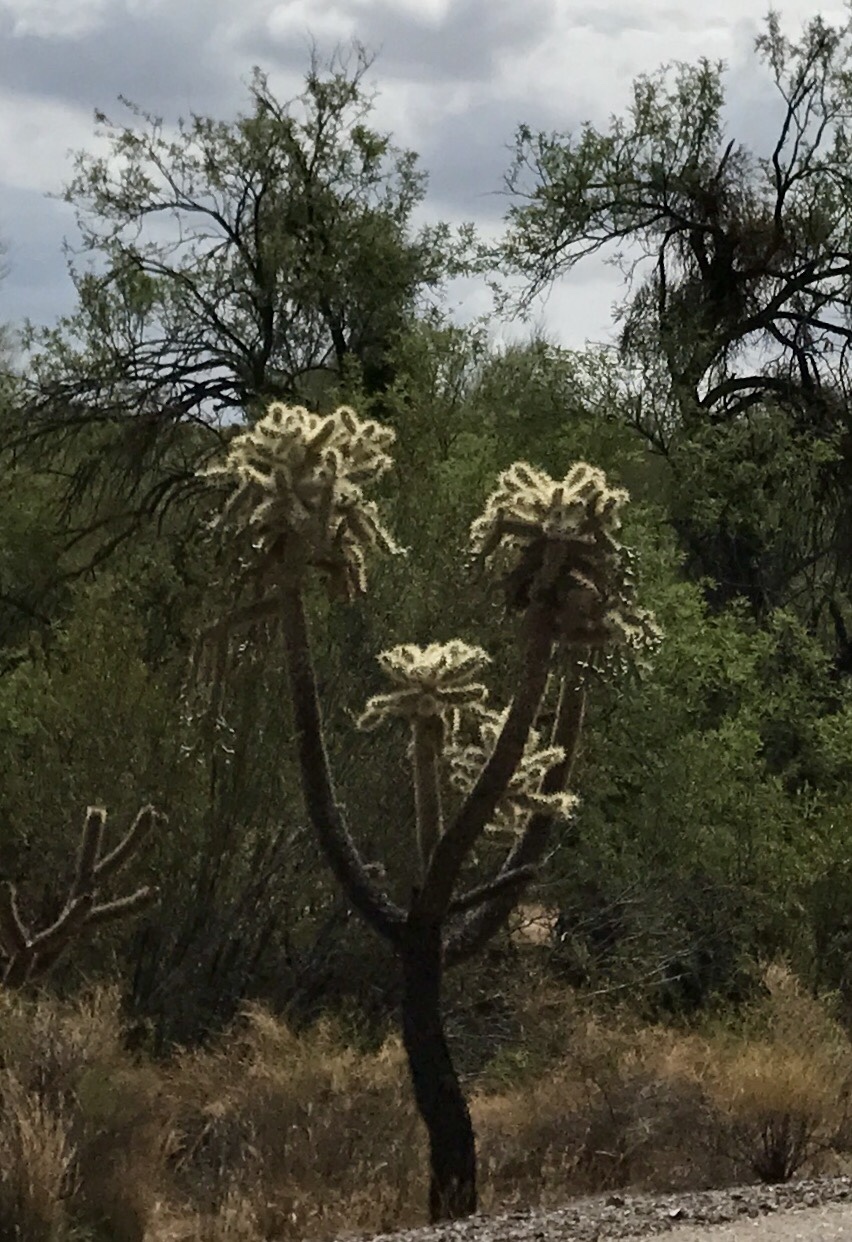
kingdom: Plantae
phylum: Tracheophyta
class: Magnoliopsida
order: Caryophyllales
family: Cactaceae
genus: Cylindropuntia
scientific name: Cylindropuntia fulgida
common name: Jumping cholla
